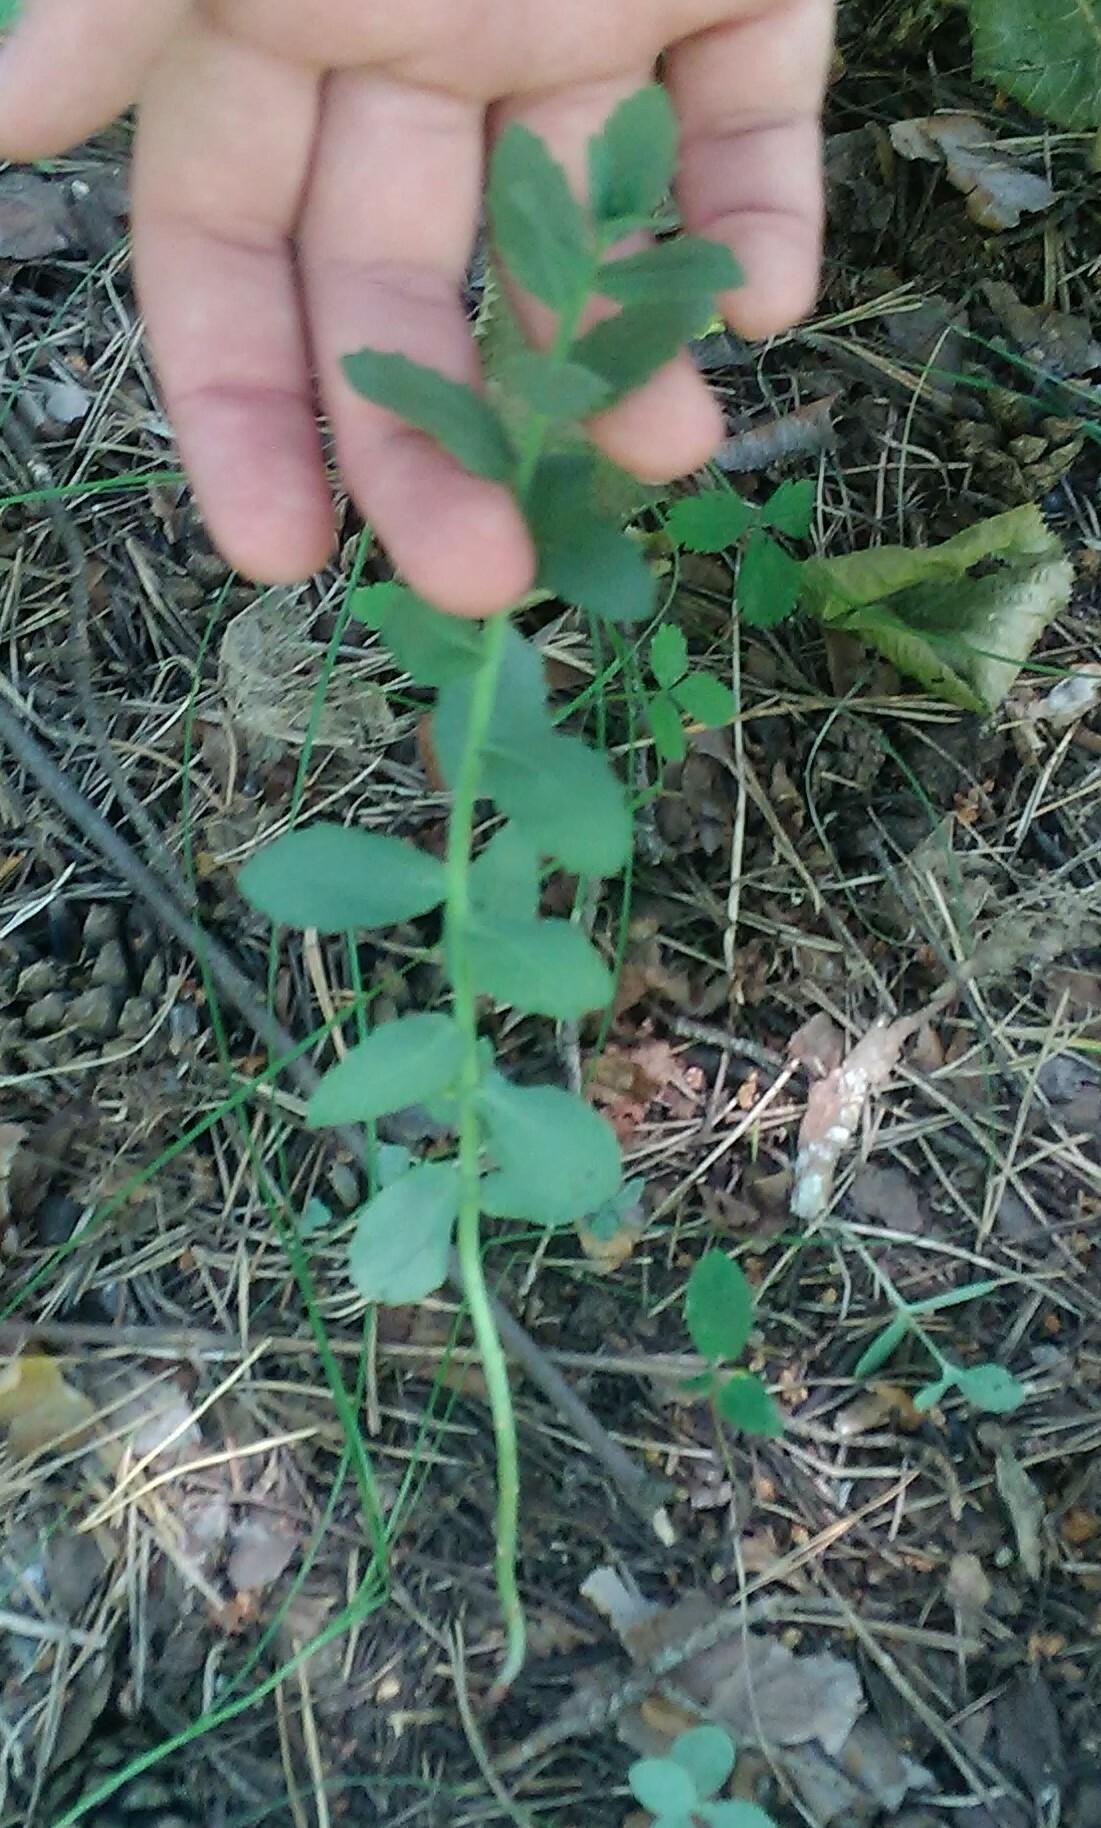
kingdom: Plantae
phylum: Tracheophyta
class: Magnoliopsida
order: Saxifragales
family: Crassulaceae
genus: Hylotelephium
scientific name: Hylotelephium telephium
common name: Live-forever
